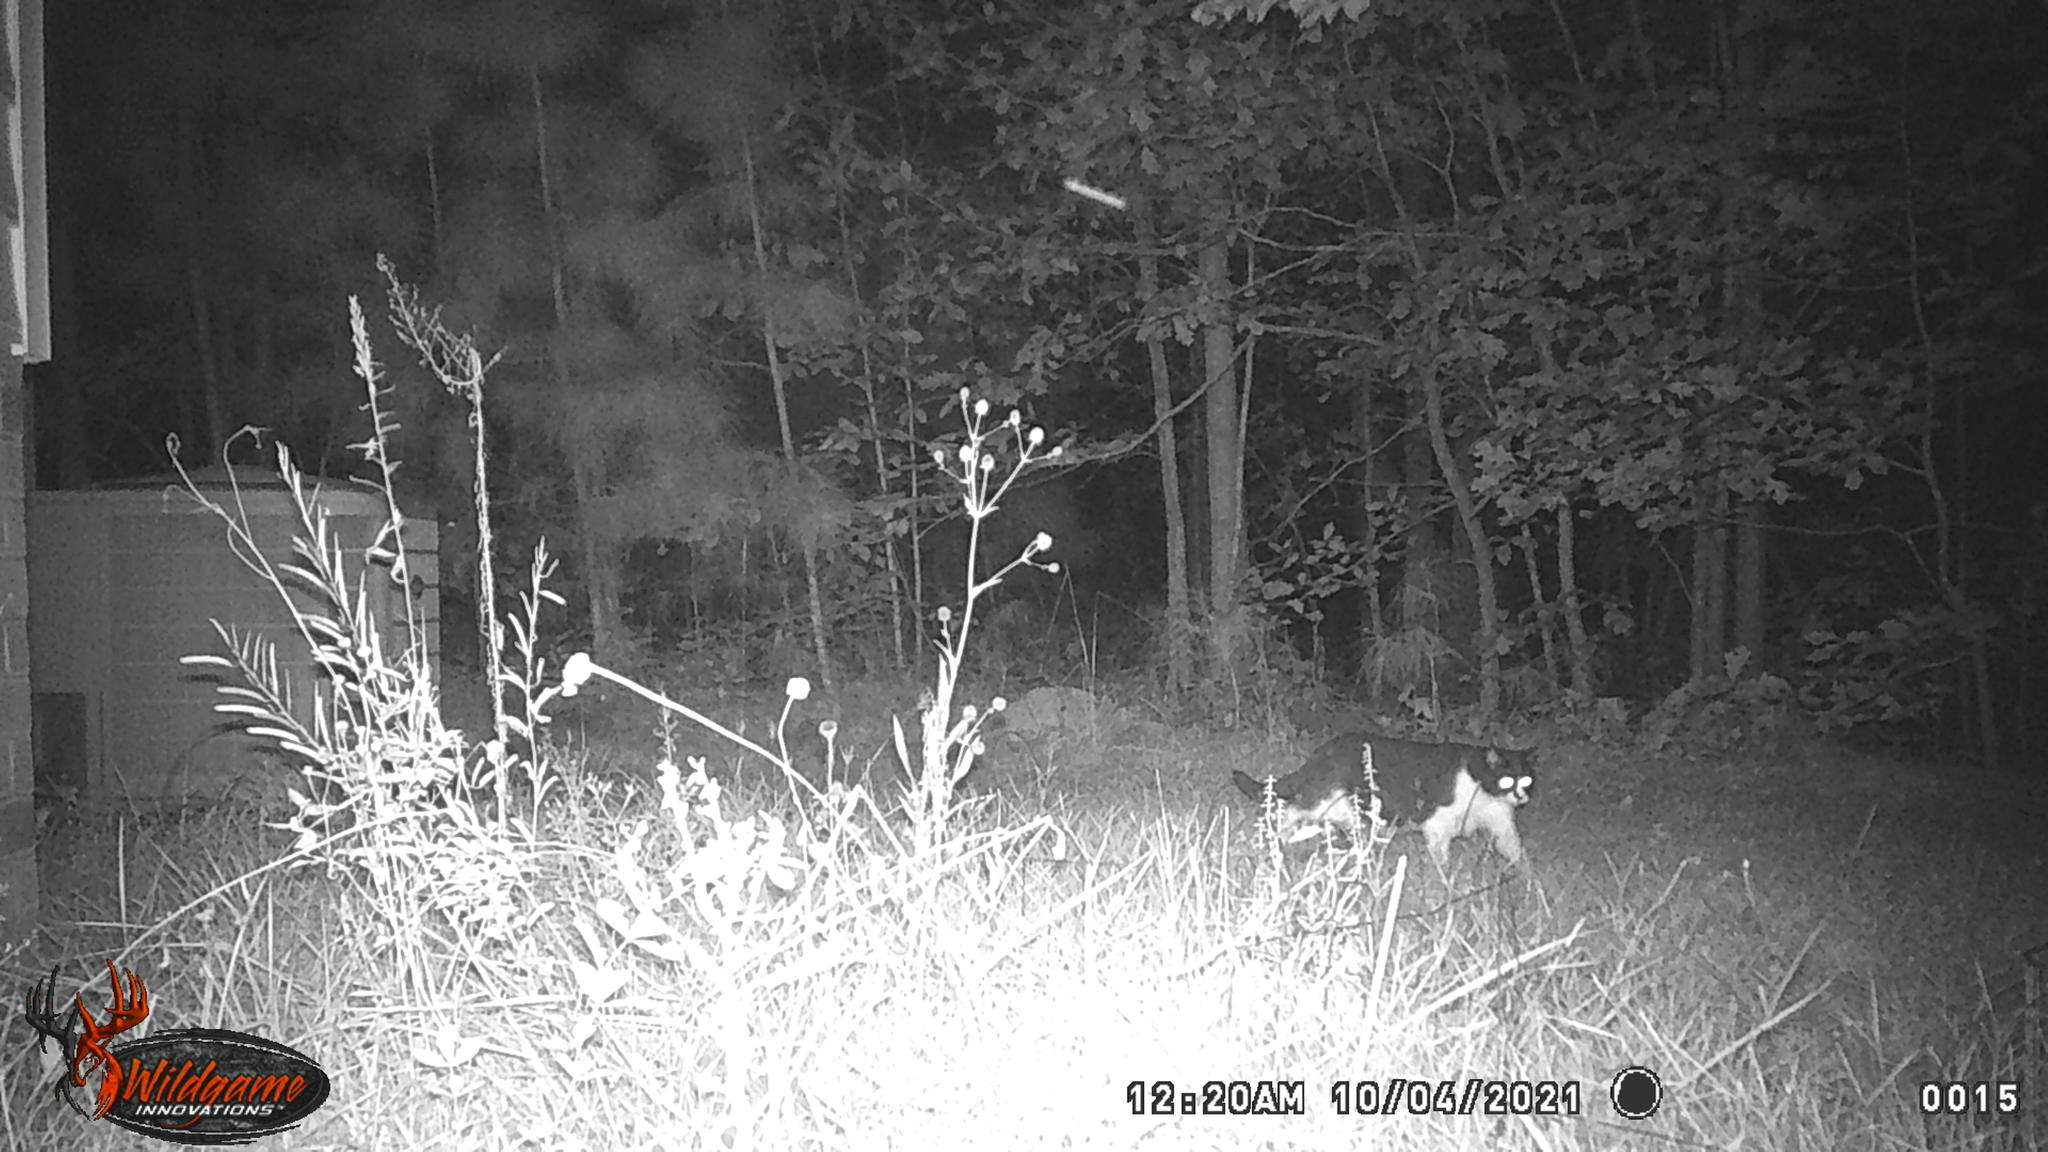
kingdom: Animalia
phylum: Chordata
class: Mammalia
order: Carnivora
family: Felidae
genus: Felis
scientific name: Felis catus
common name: Domestic cat
